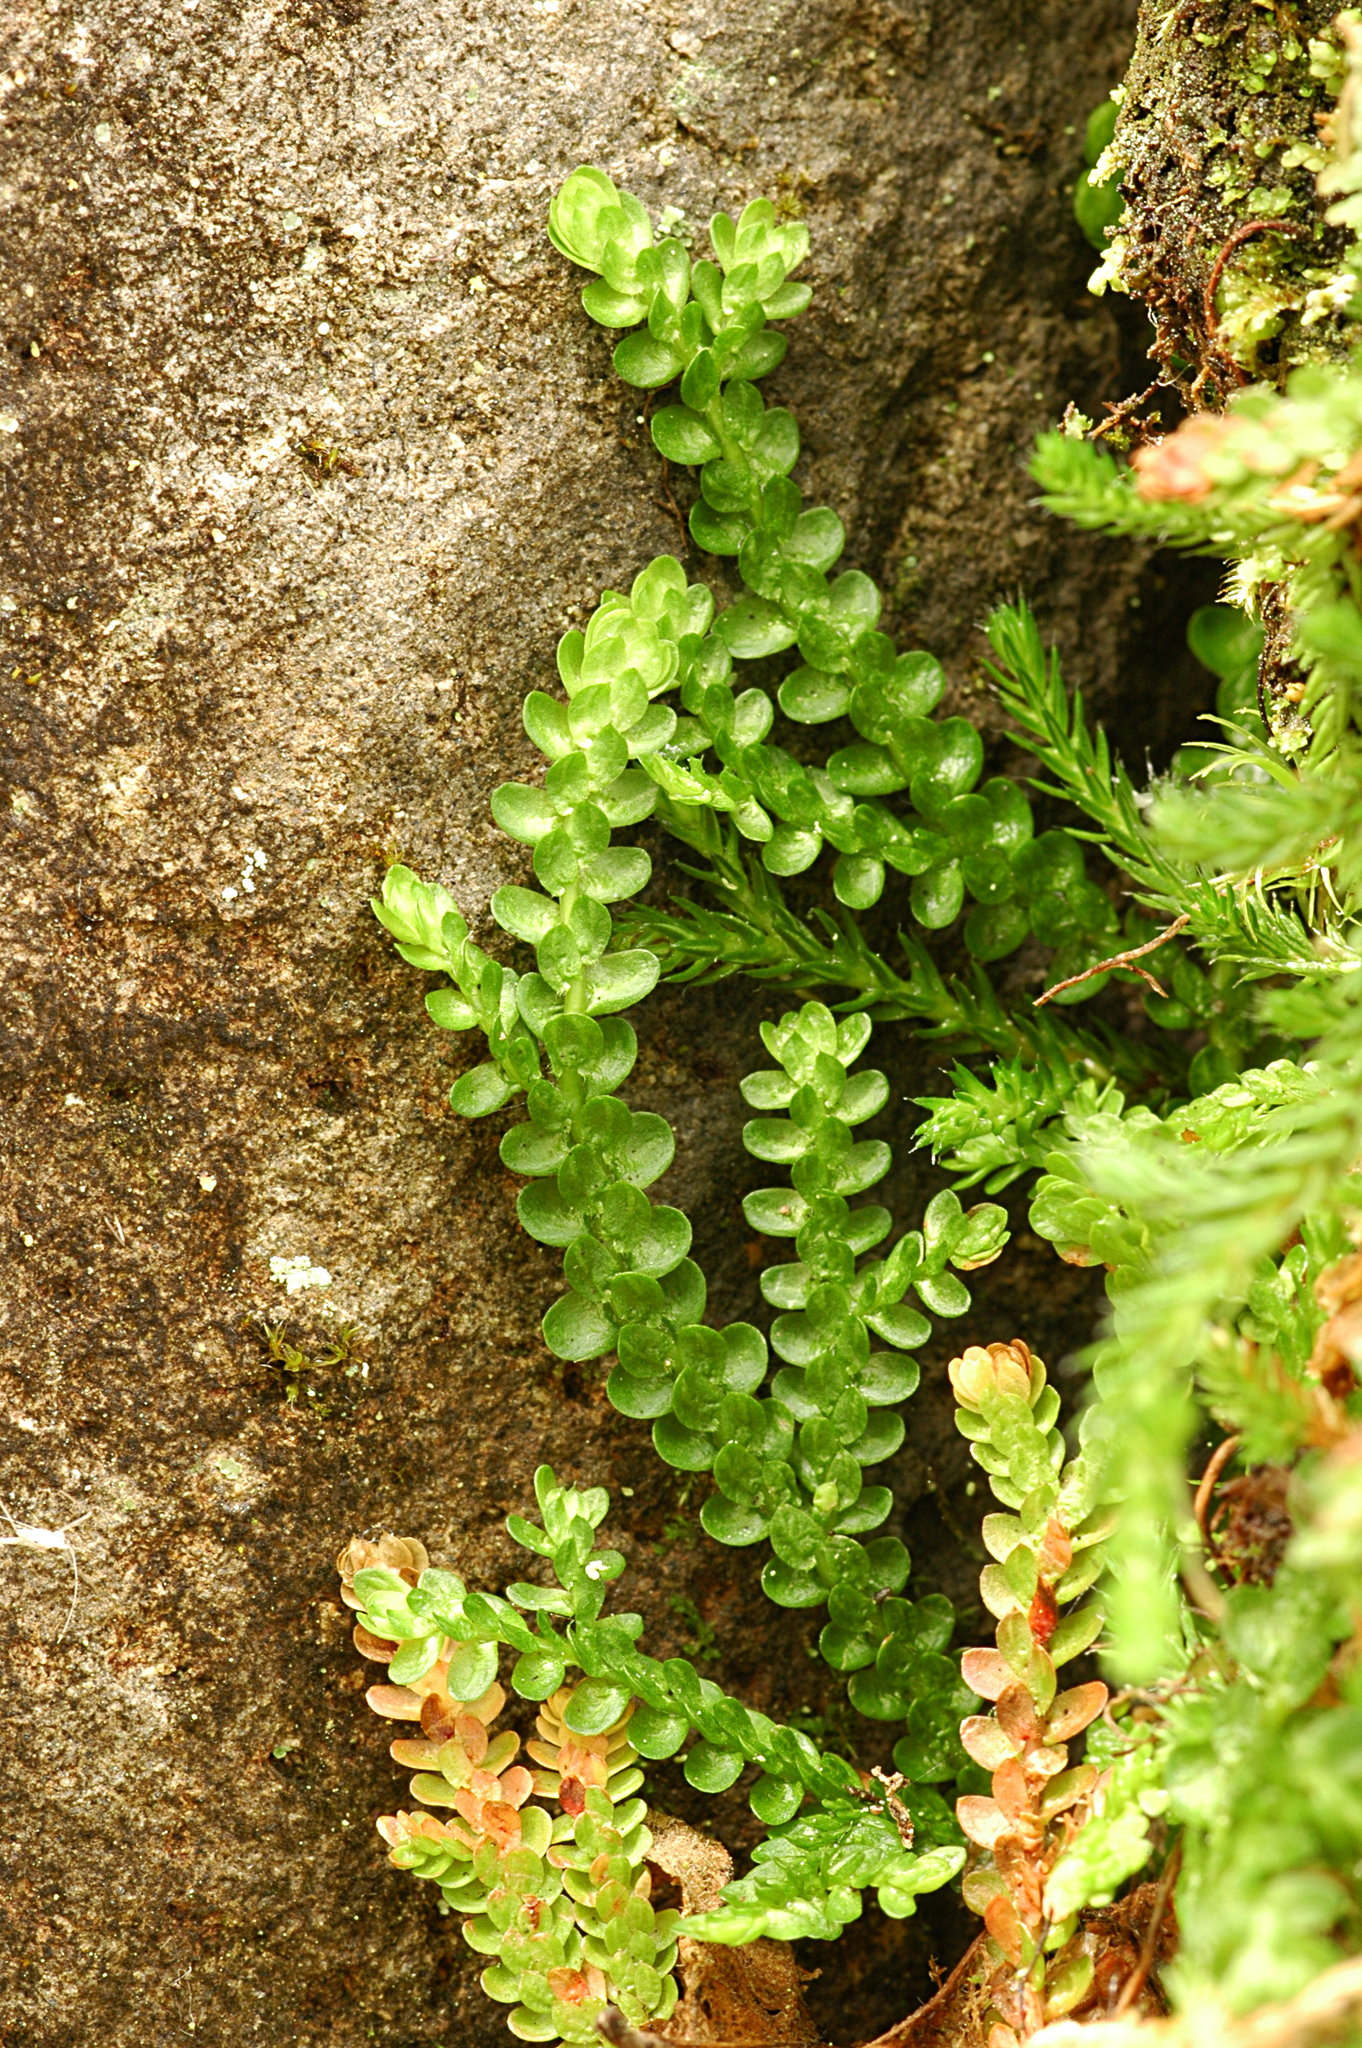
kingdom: Plantae
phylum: Tracheophyta
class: Lycopodiopsida
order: Selaginellales
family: Selaginellaceae
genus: Selaginella
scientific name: Selaginella douglasii
